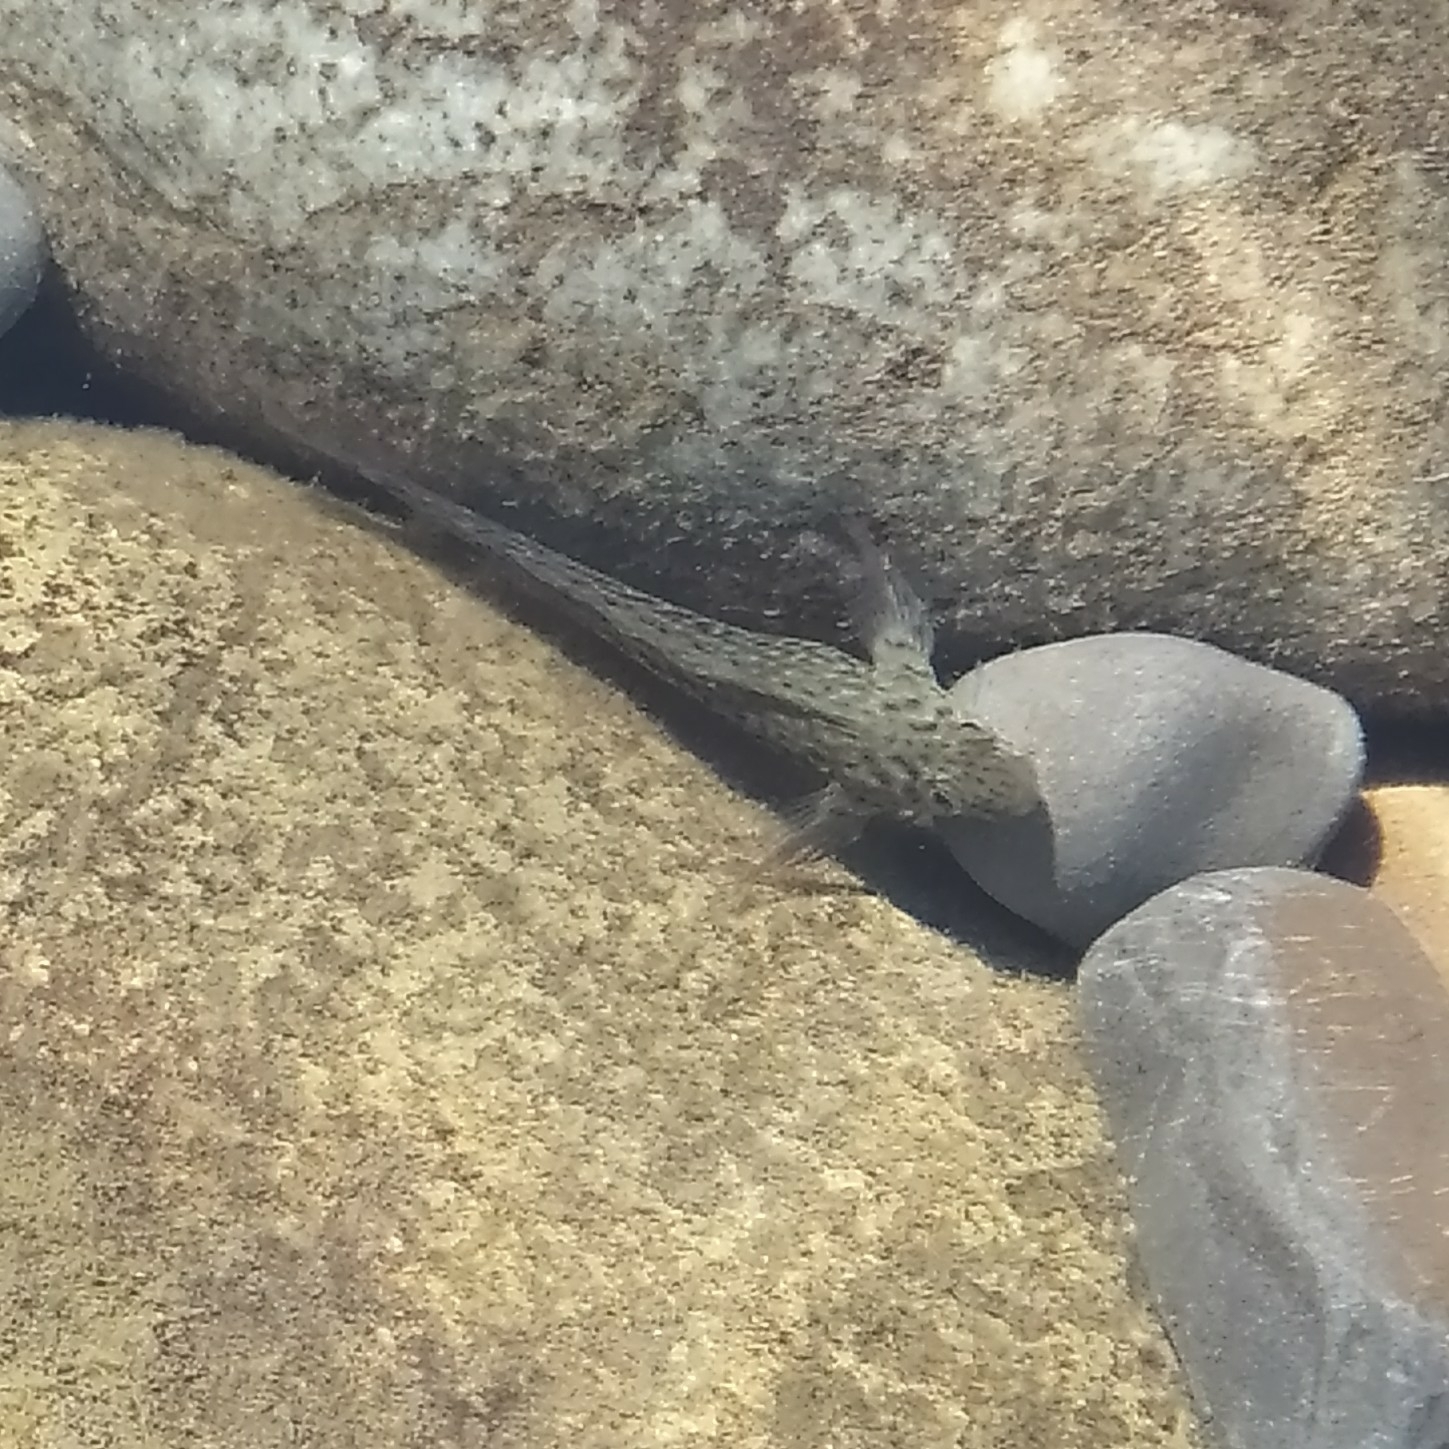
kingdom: Animalia
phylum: Chordata
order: Perciformes
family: Blenniidae
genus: Parablennius
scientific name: Parablennius sanguinolentus
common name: Black sea blenny
